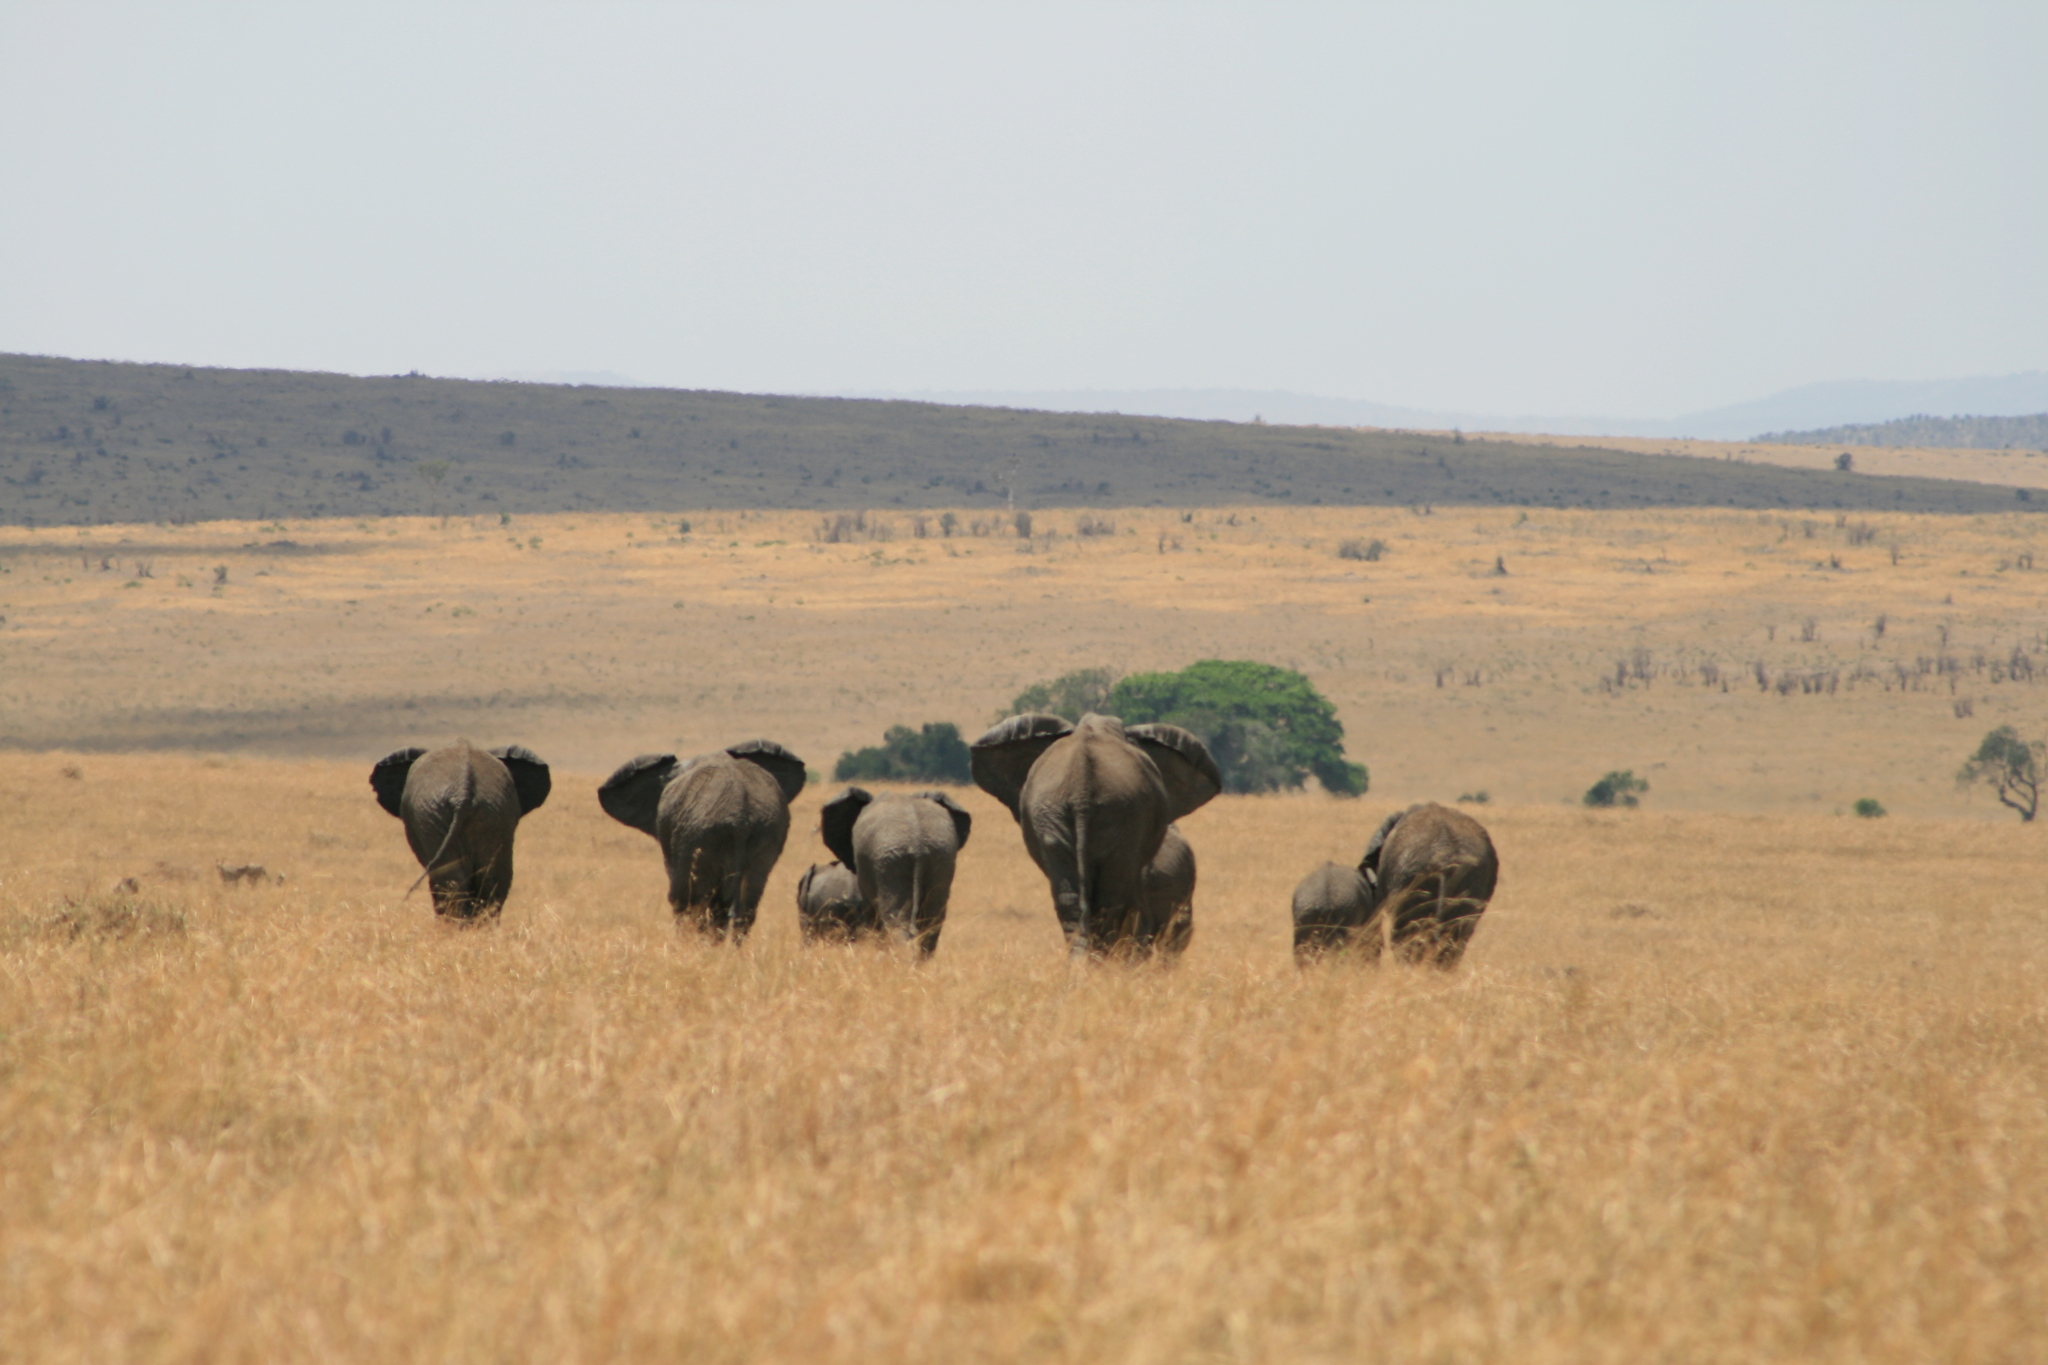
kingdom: Animalia
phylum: Chordata
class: Mammalia
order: Proboscidea
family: Elephantidae
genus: Loxodonta
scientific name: Loxodonta africana
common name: African elephant
